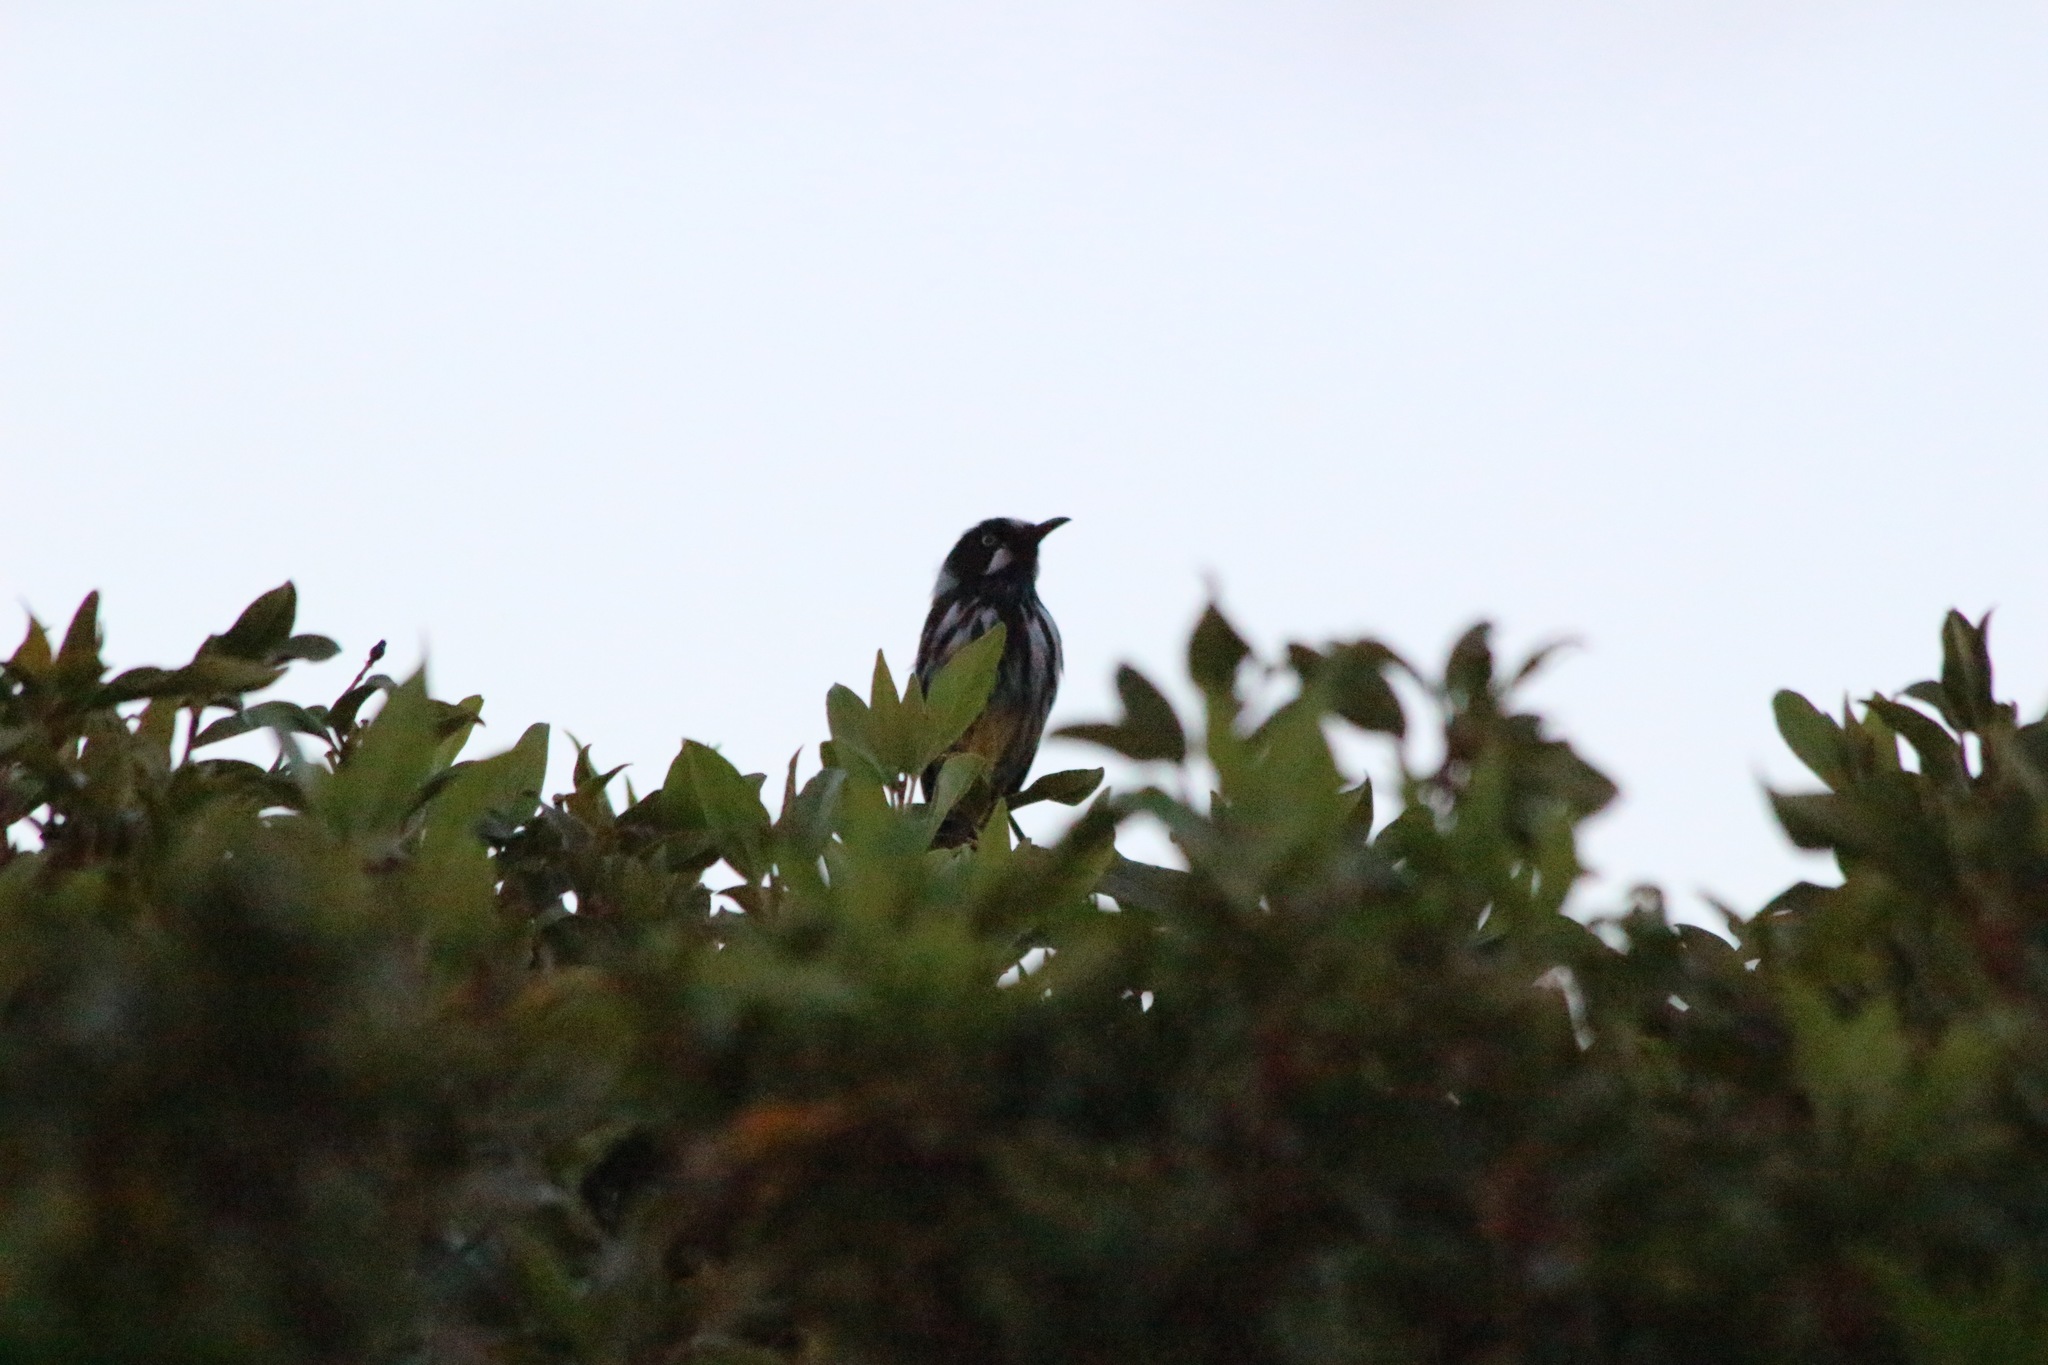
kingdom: Animalia
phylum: Chordata
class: Aves
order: Passeriformes
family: Meliphagidae
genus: Phylidonyris
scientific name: Phylidonyris novaehollandiae
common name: New holland honeyeater
